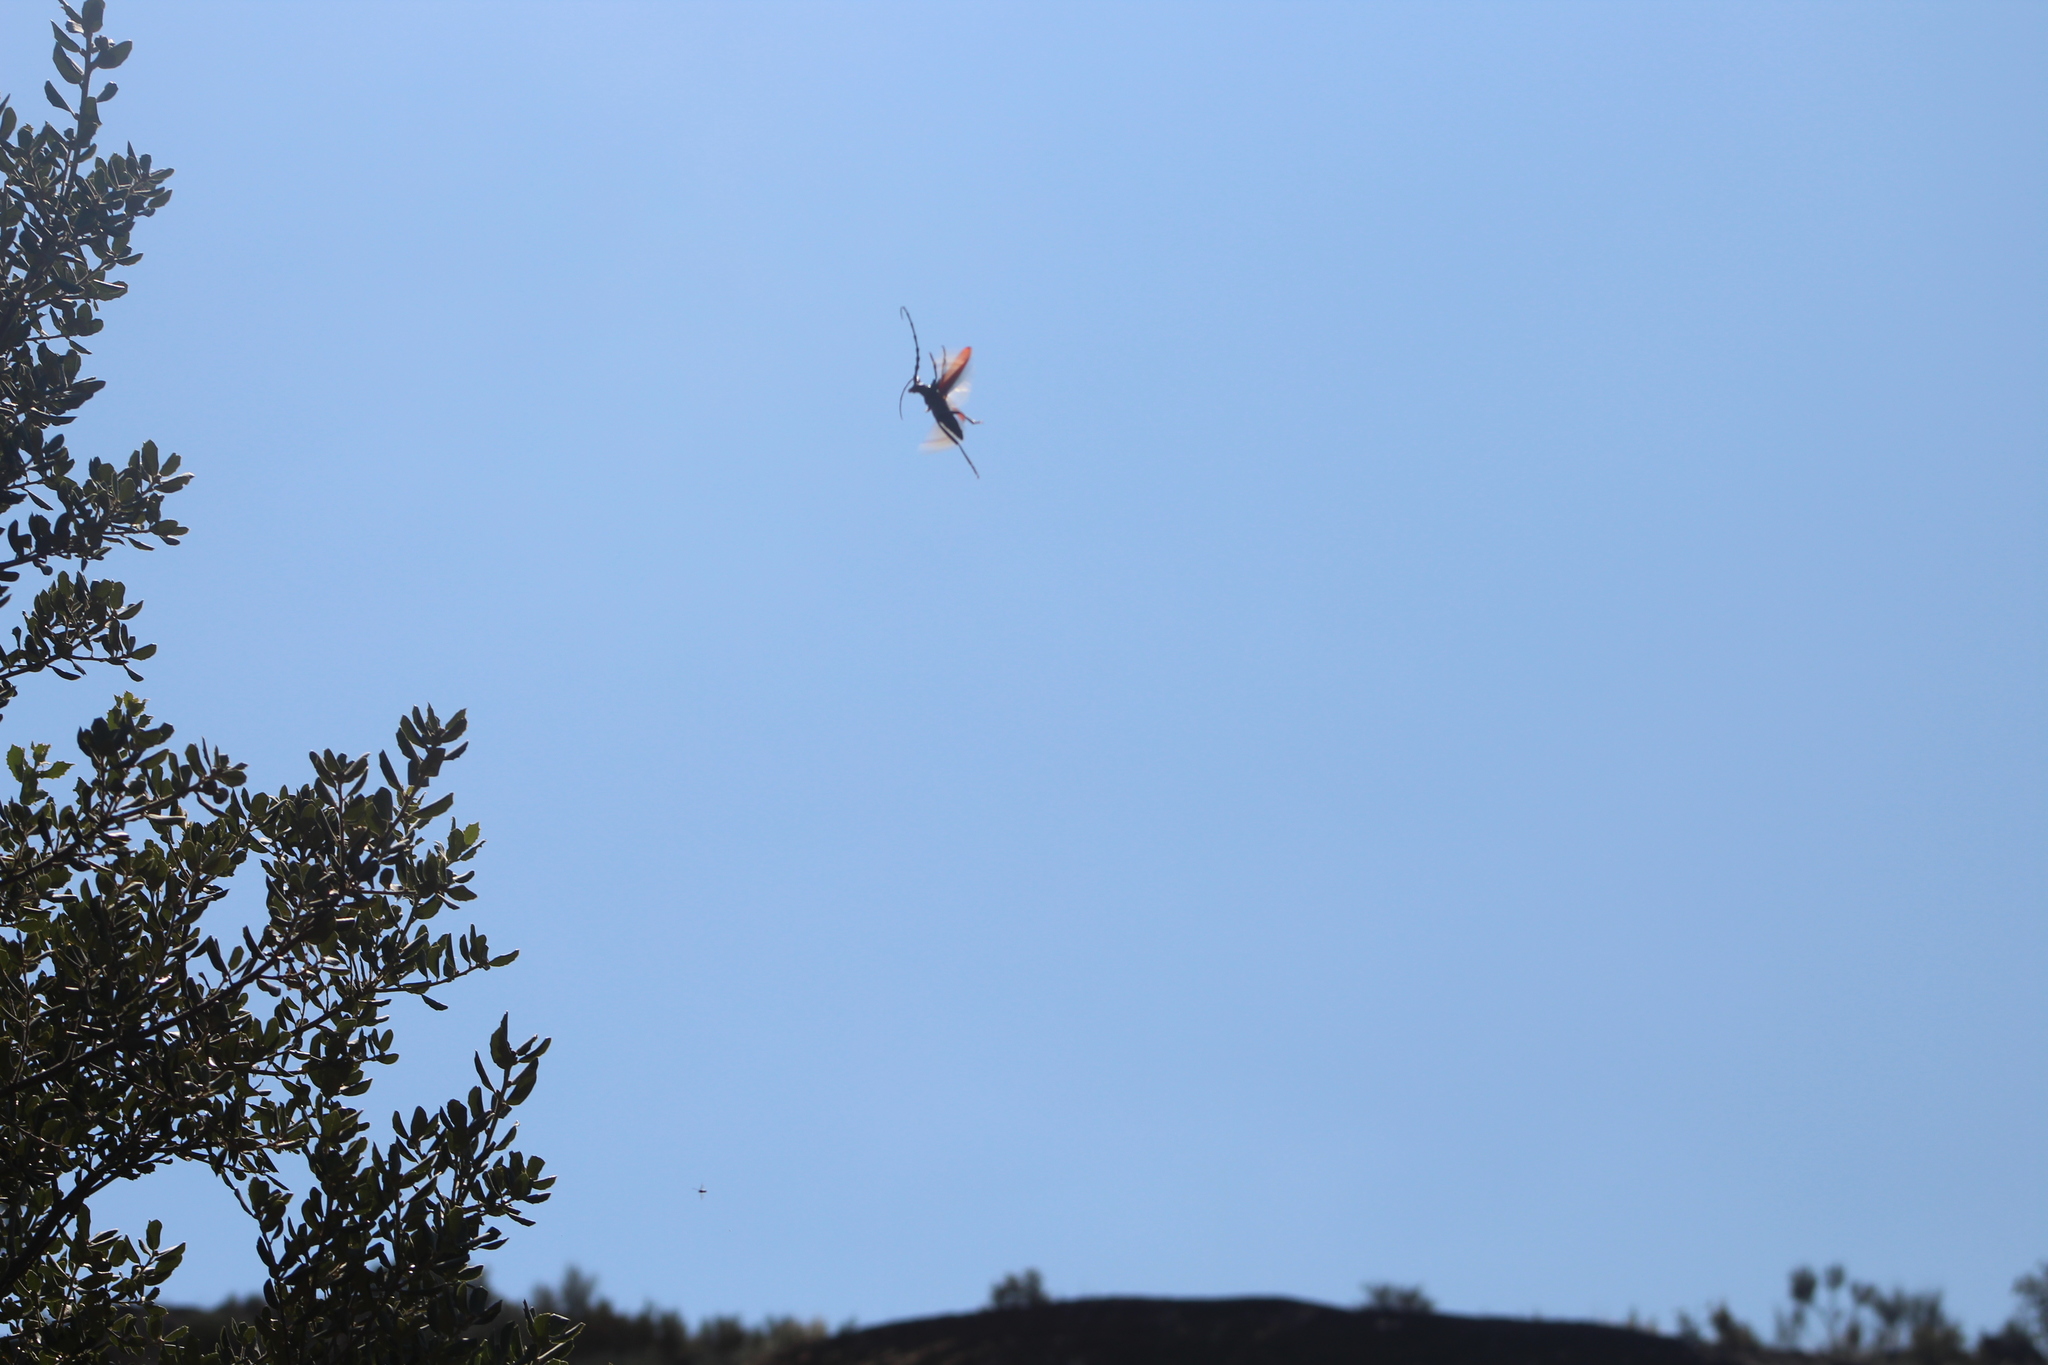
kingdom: Animalia
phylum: Arthropoda
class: Insecta
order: Coleoptera
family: Cerambycidae
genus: Cerambyx
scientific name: Cerambyx cerdo
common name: Cerambyx longicorn
